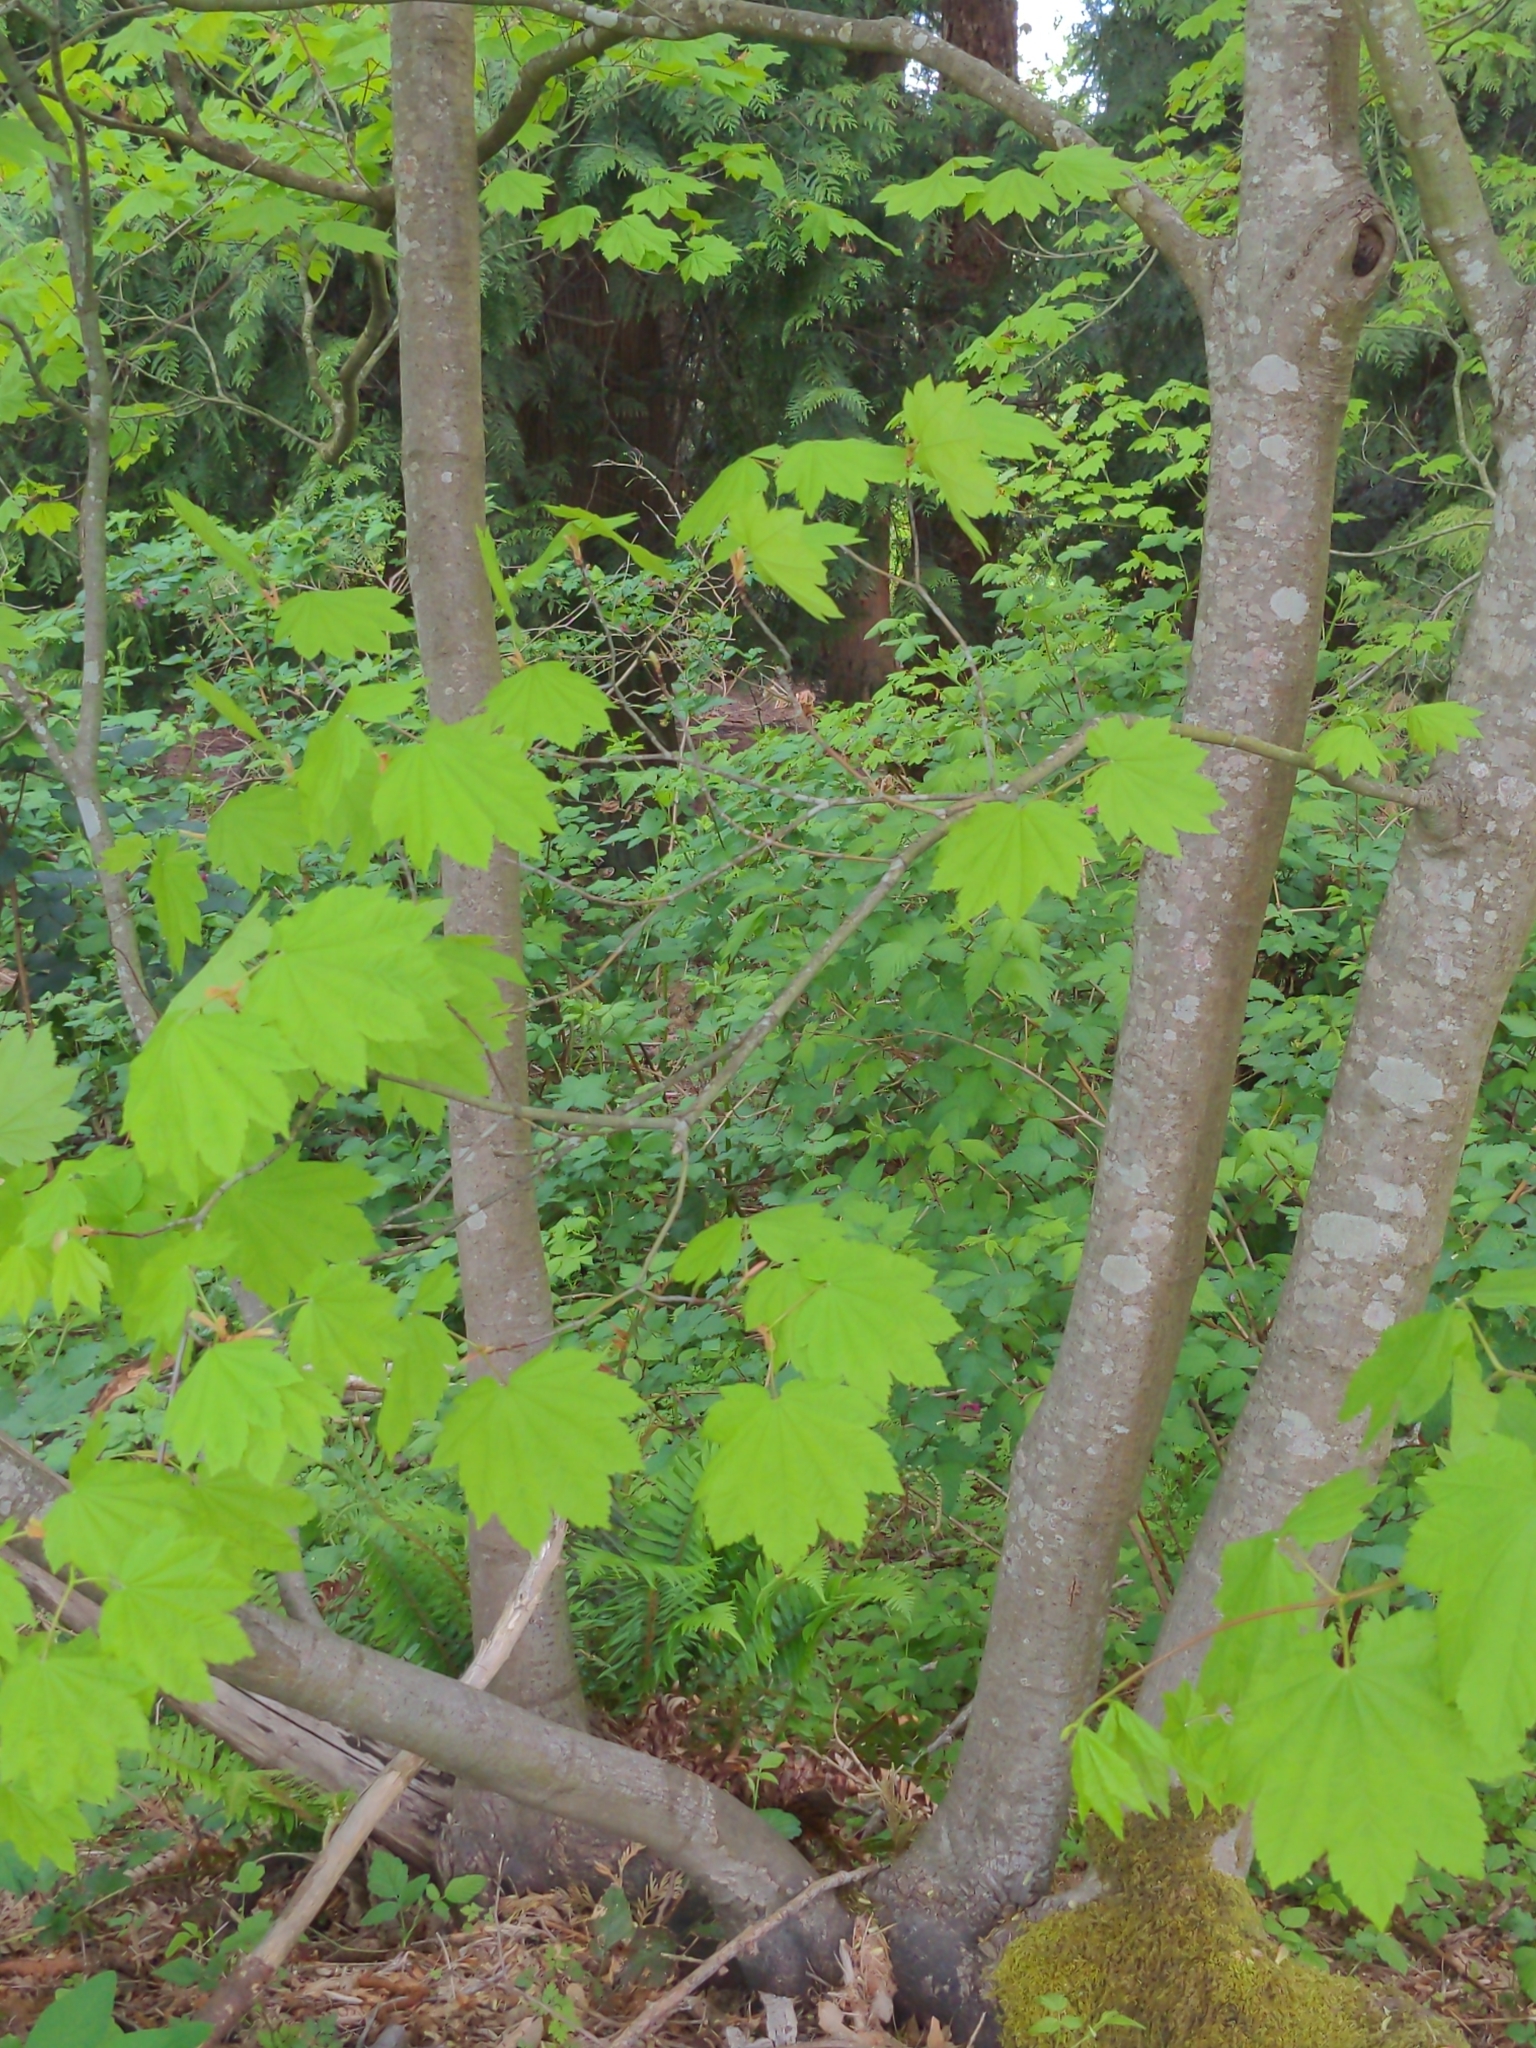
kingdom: Plantae
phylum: Tracheophyta
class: Magnoliopsida
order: Sapindales
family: Sapindaceae
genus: Acer
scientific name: Acer circinatum
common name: Vine maple
